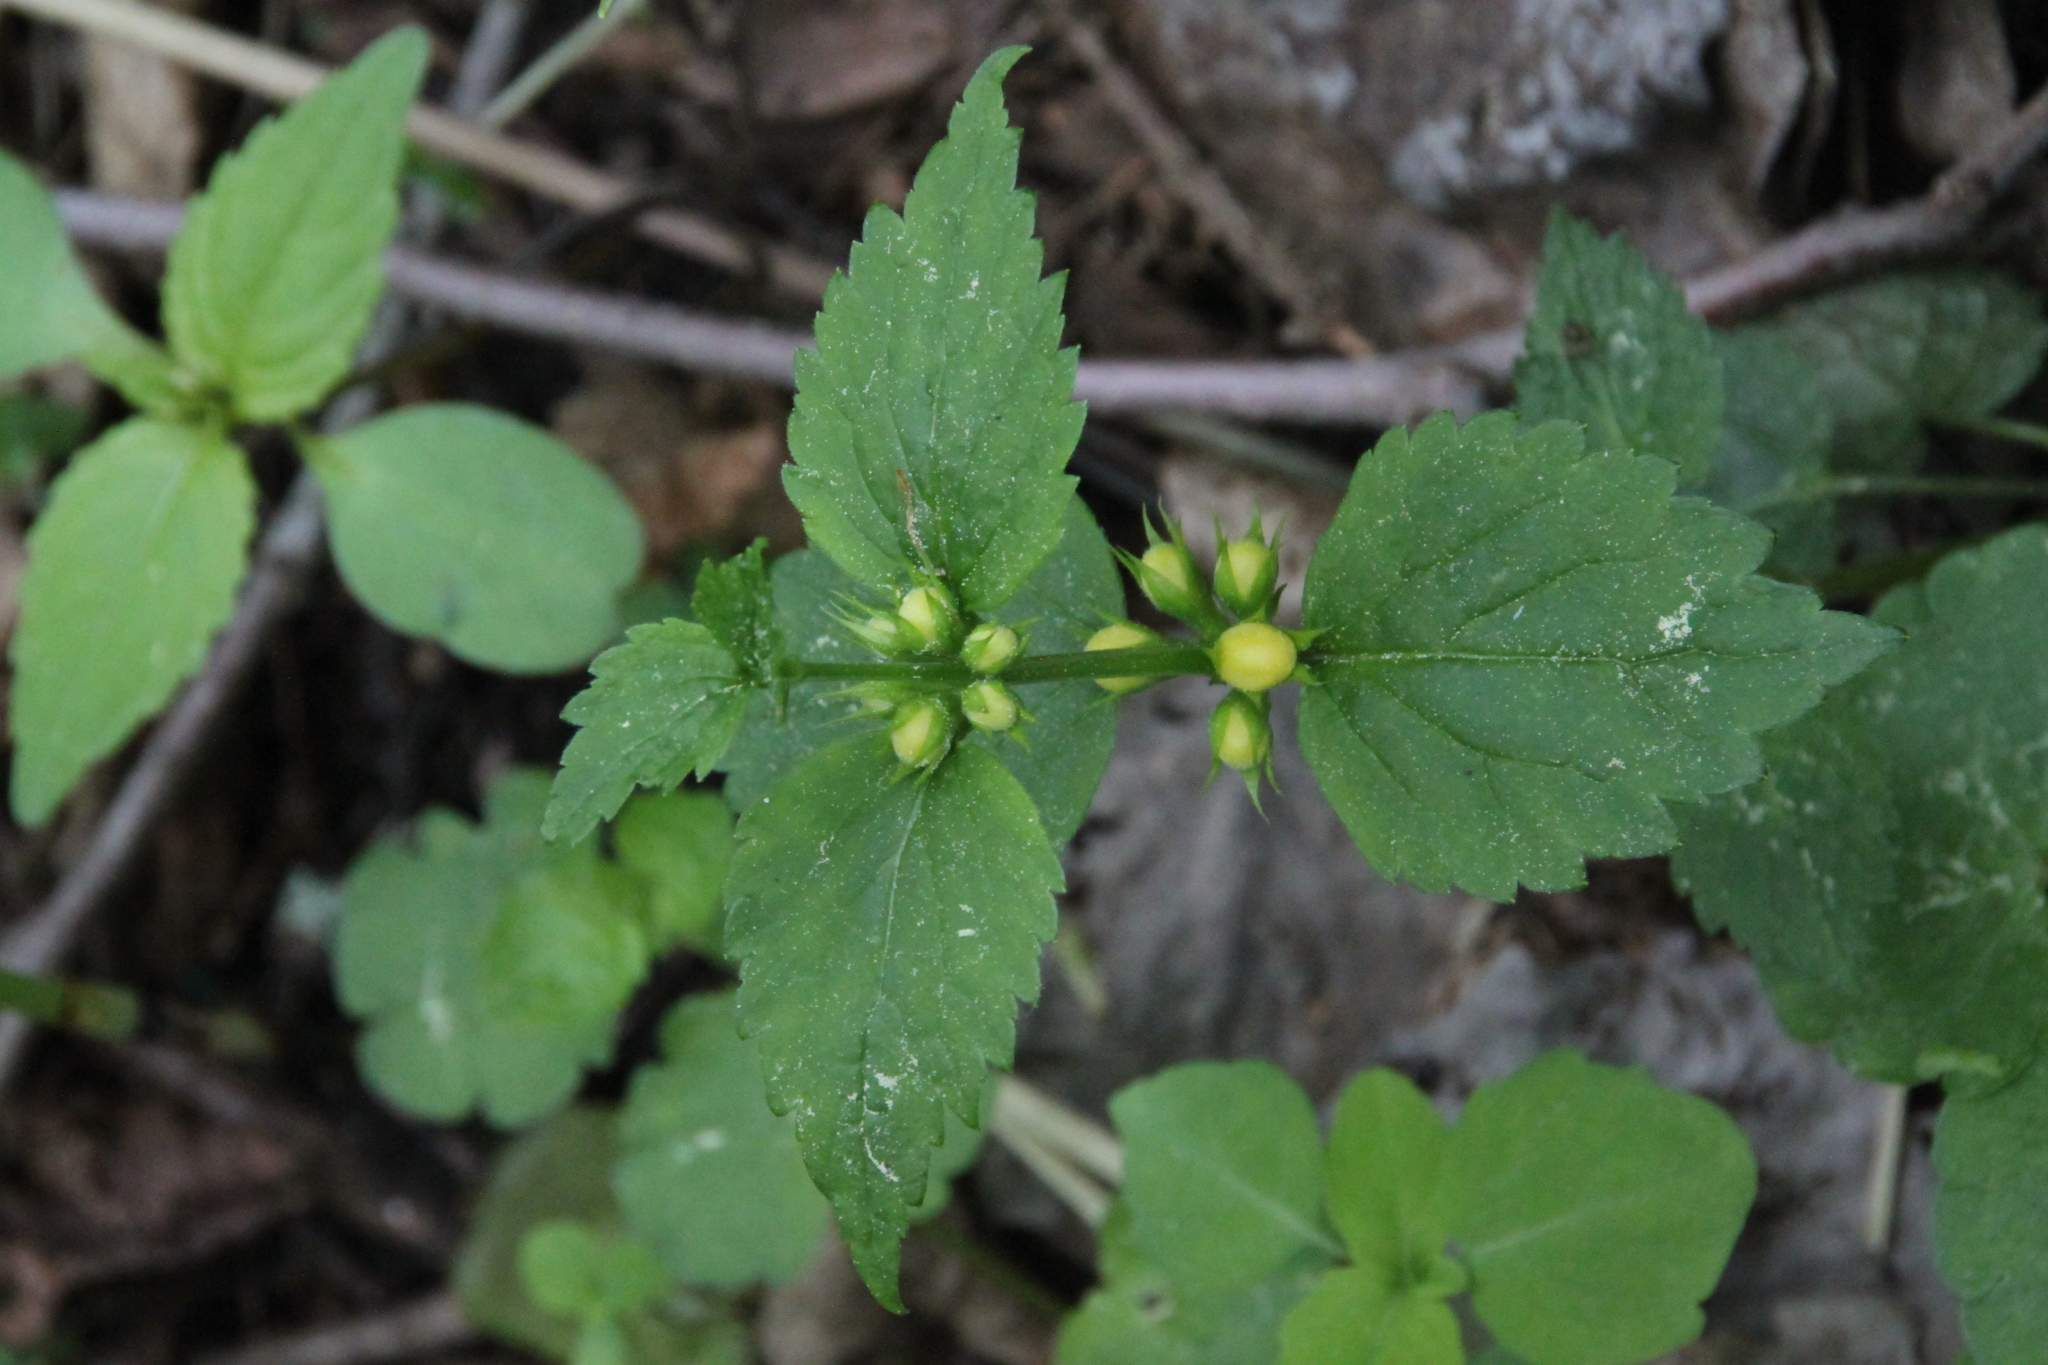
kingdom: Plantae
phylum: Tracheophyta
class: Magnoliopsida
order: Lamiales
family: Lamiaceae
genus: Lamium
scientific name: Lamium galeobdolon
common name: Yellow archangel
